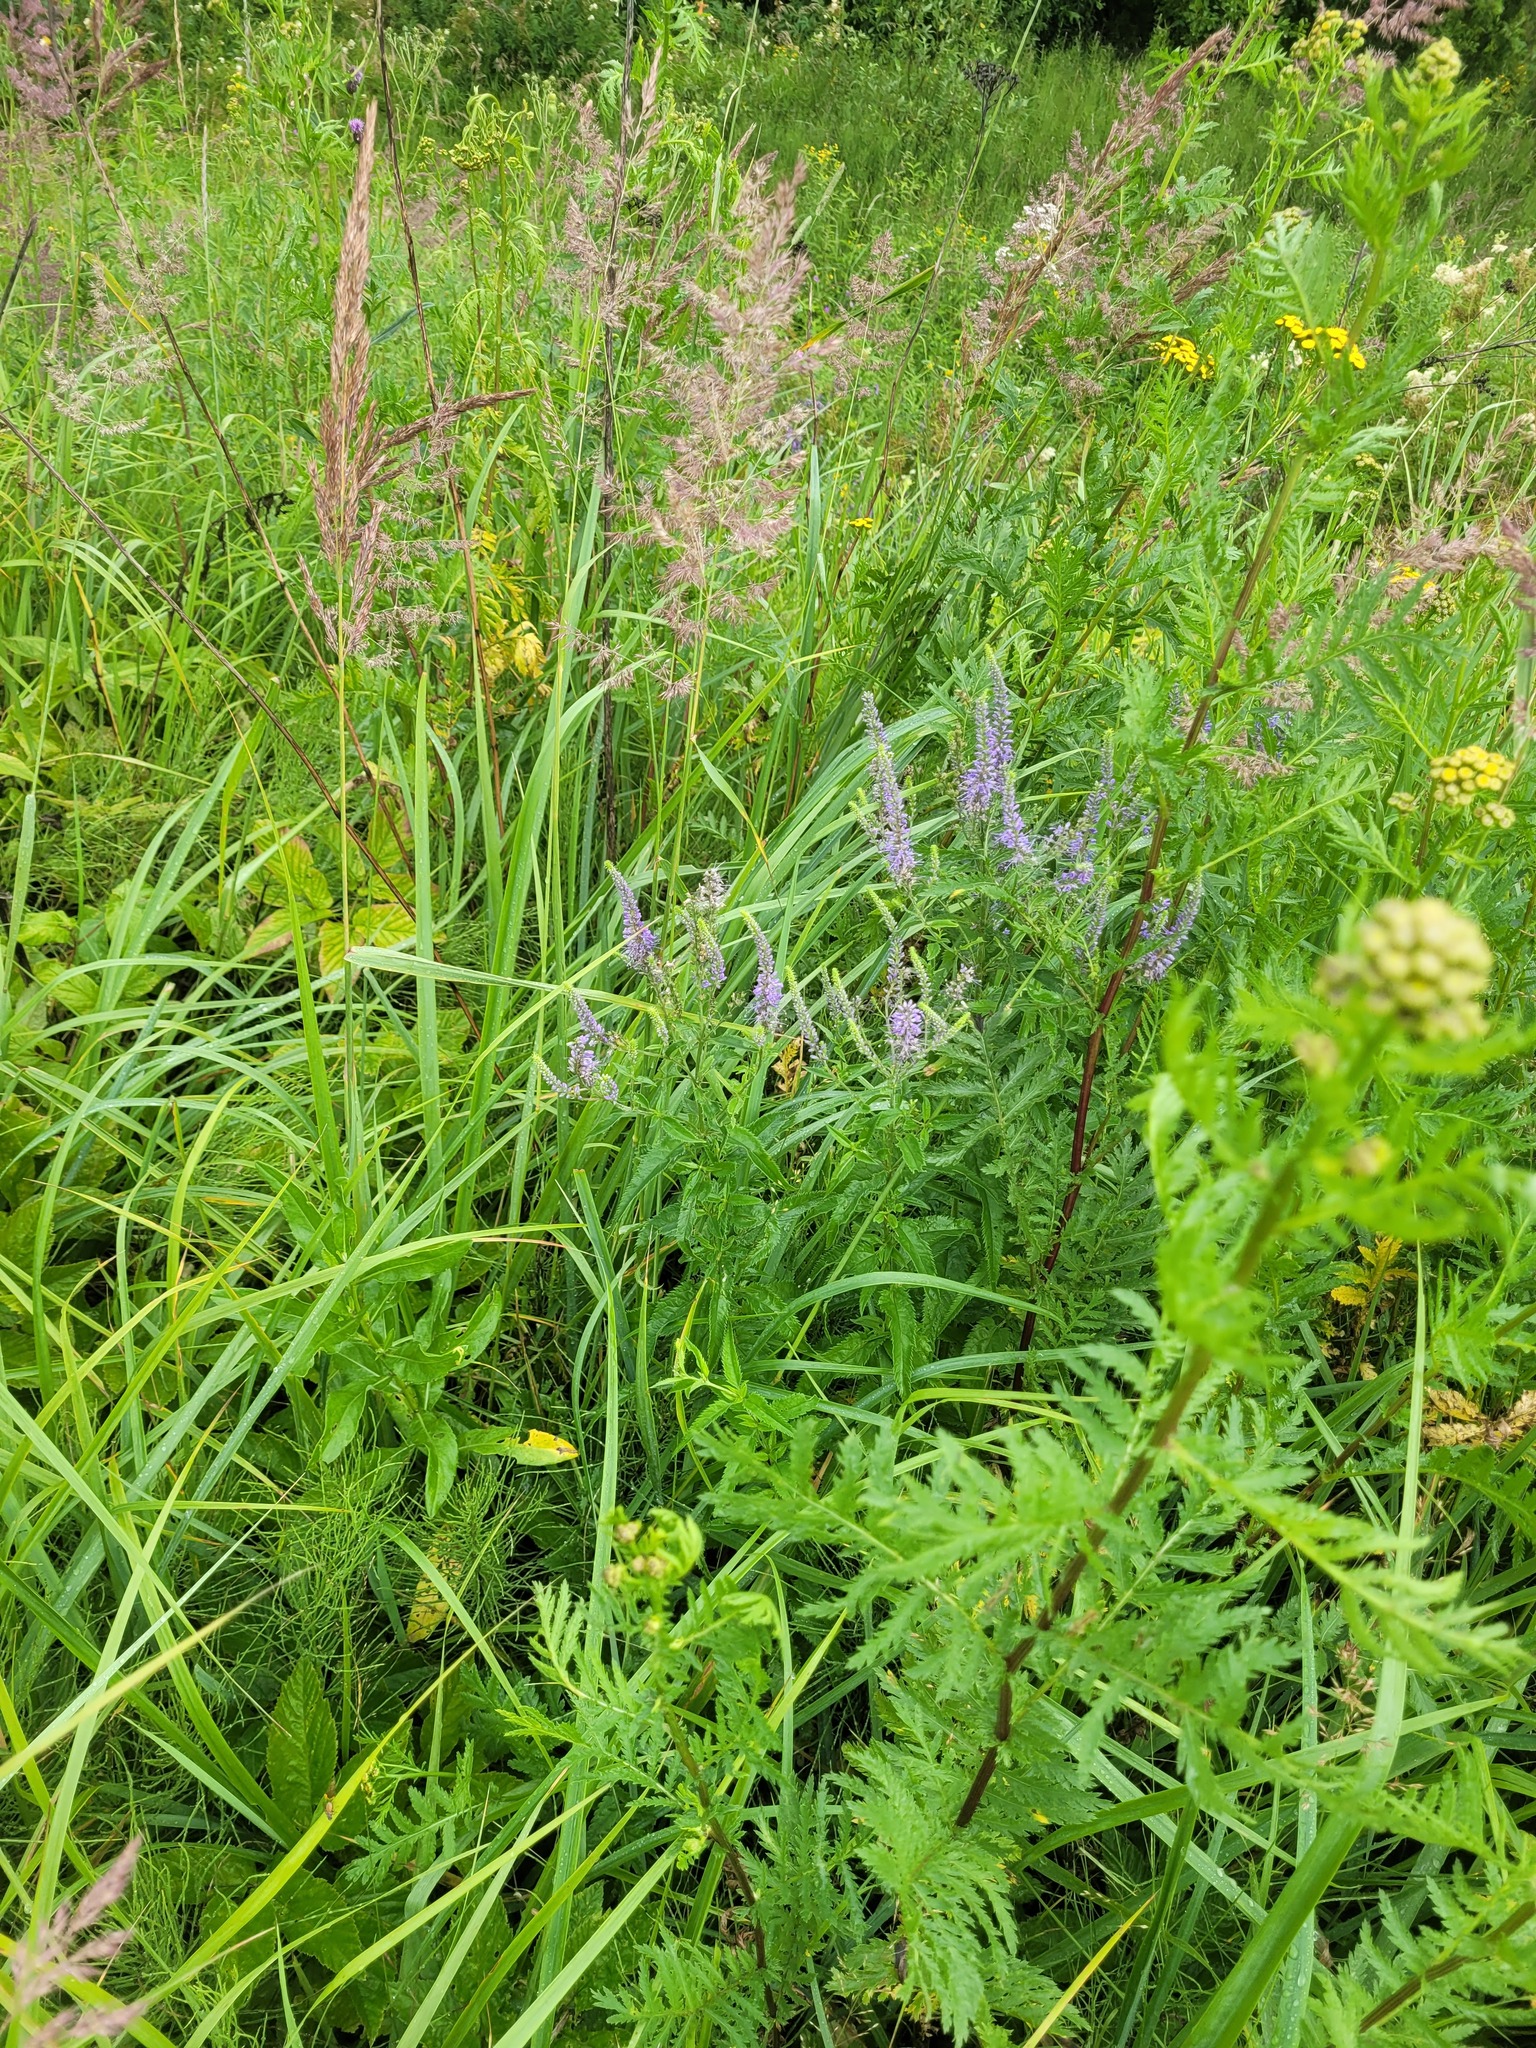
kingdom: Plantae
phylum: Tracheophyta
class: Magnoliopsida
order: Lamiales
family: Plantaginaceae
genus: Veronica
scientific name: Veronica longifolia
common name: Garden speedwell
